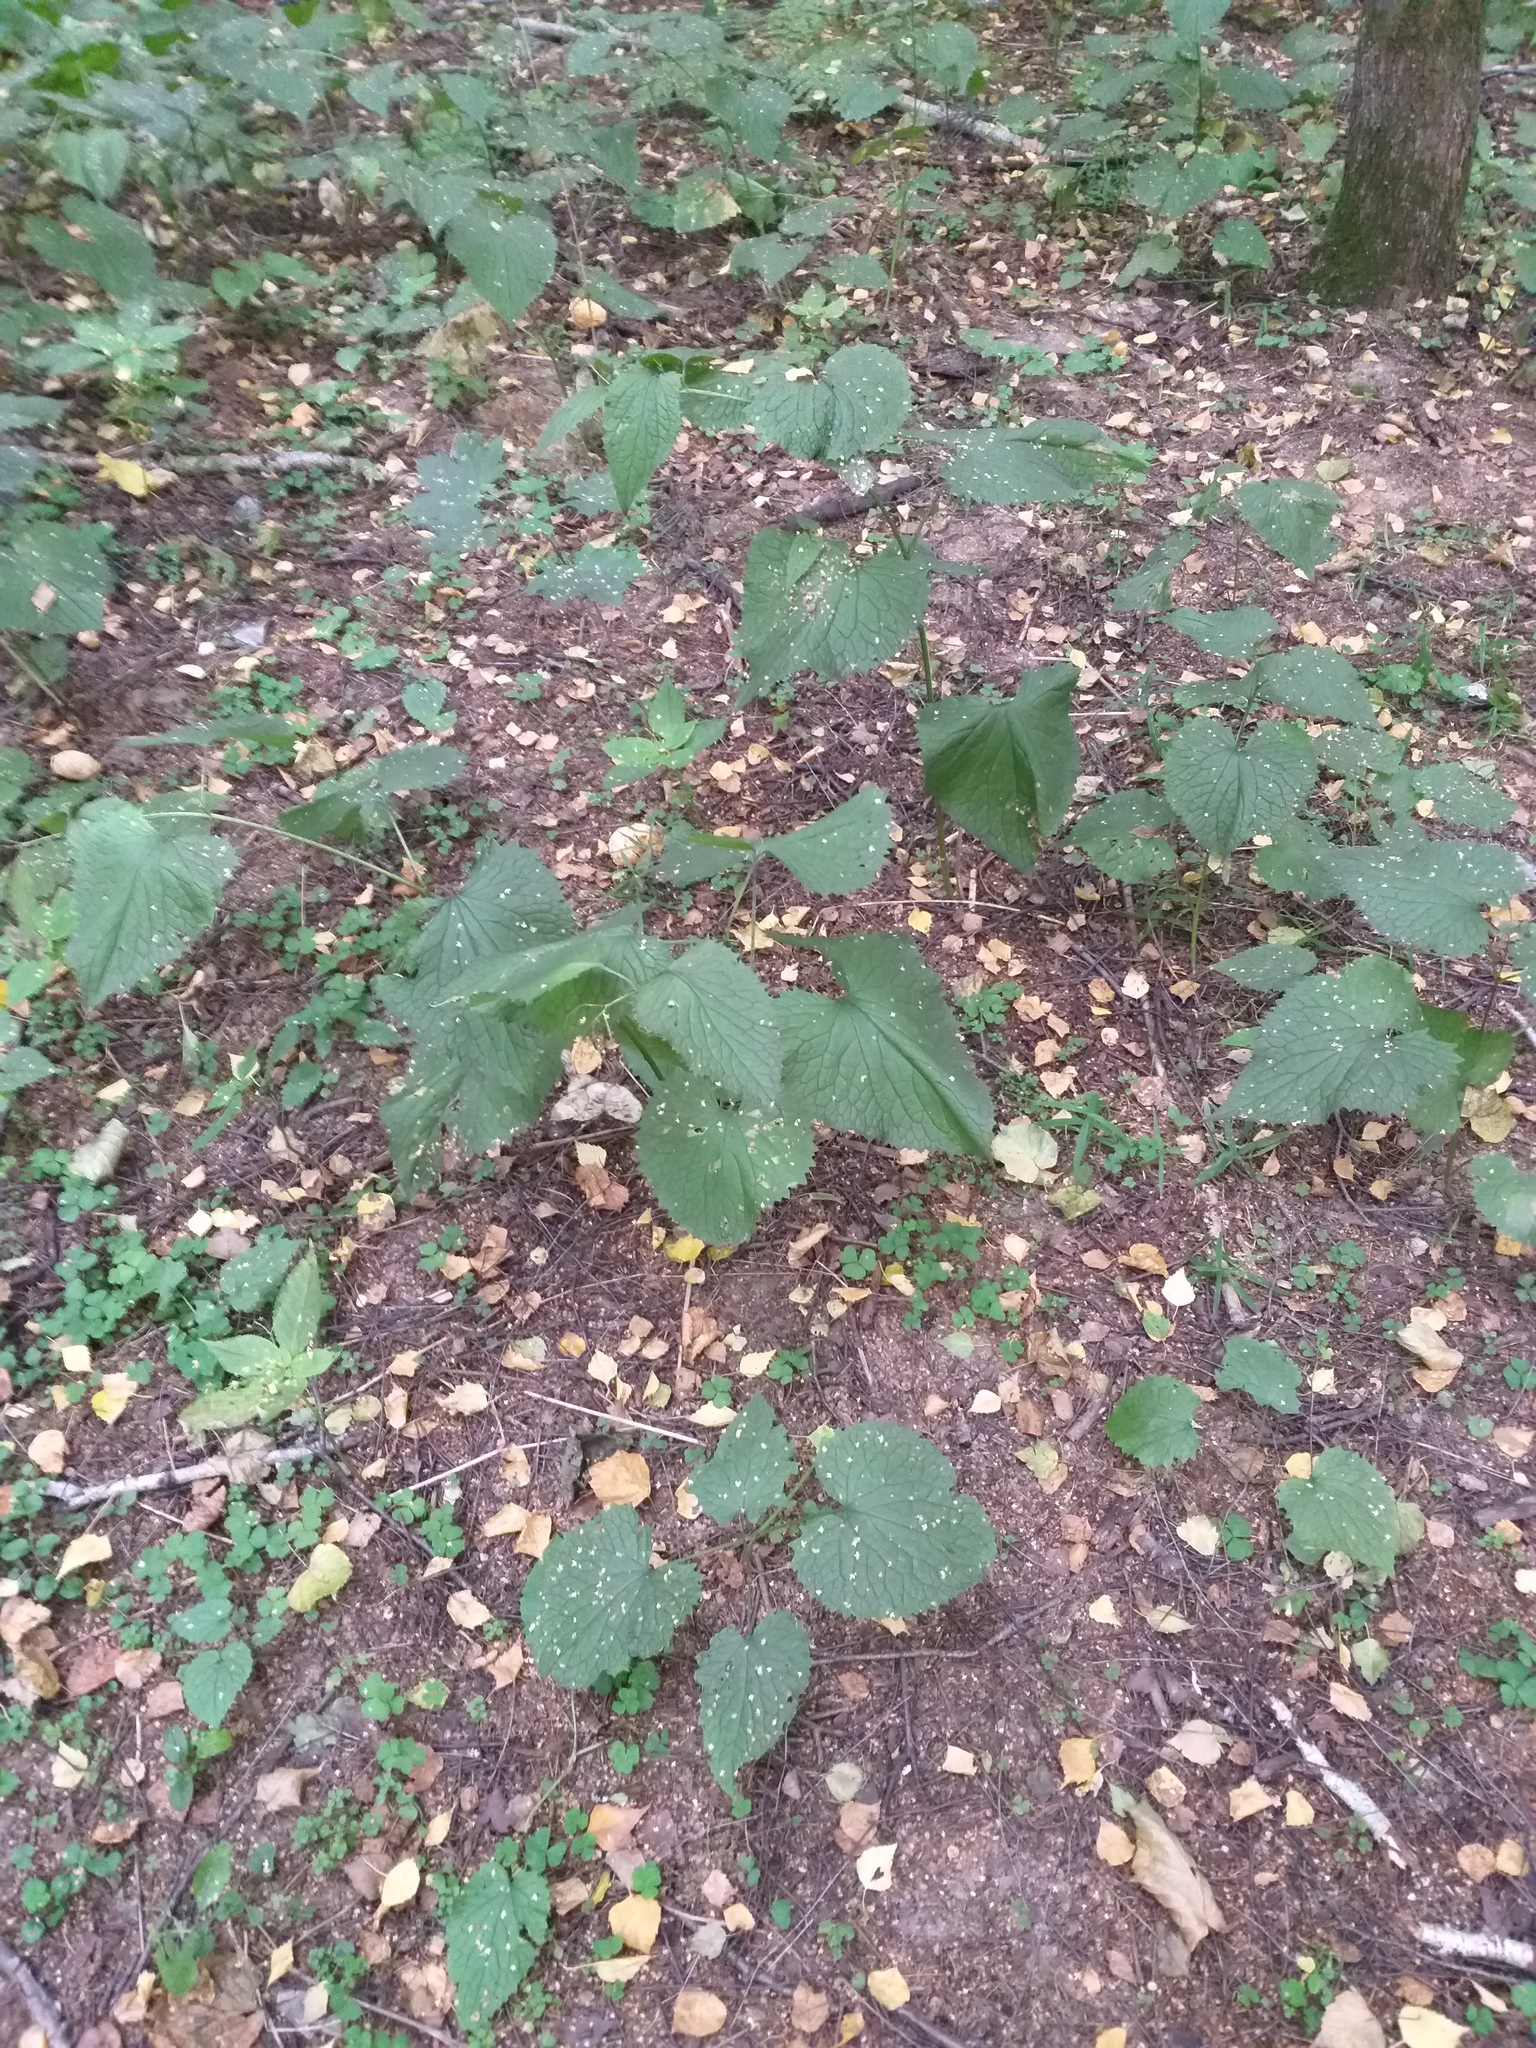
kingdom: Plantae
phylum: Tracheophyta
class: Magnoliopsida
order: Brassicales
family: Brassicaceae
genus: Lunaria
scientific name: Lunaria rediviva
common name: Perennial honesty
